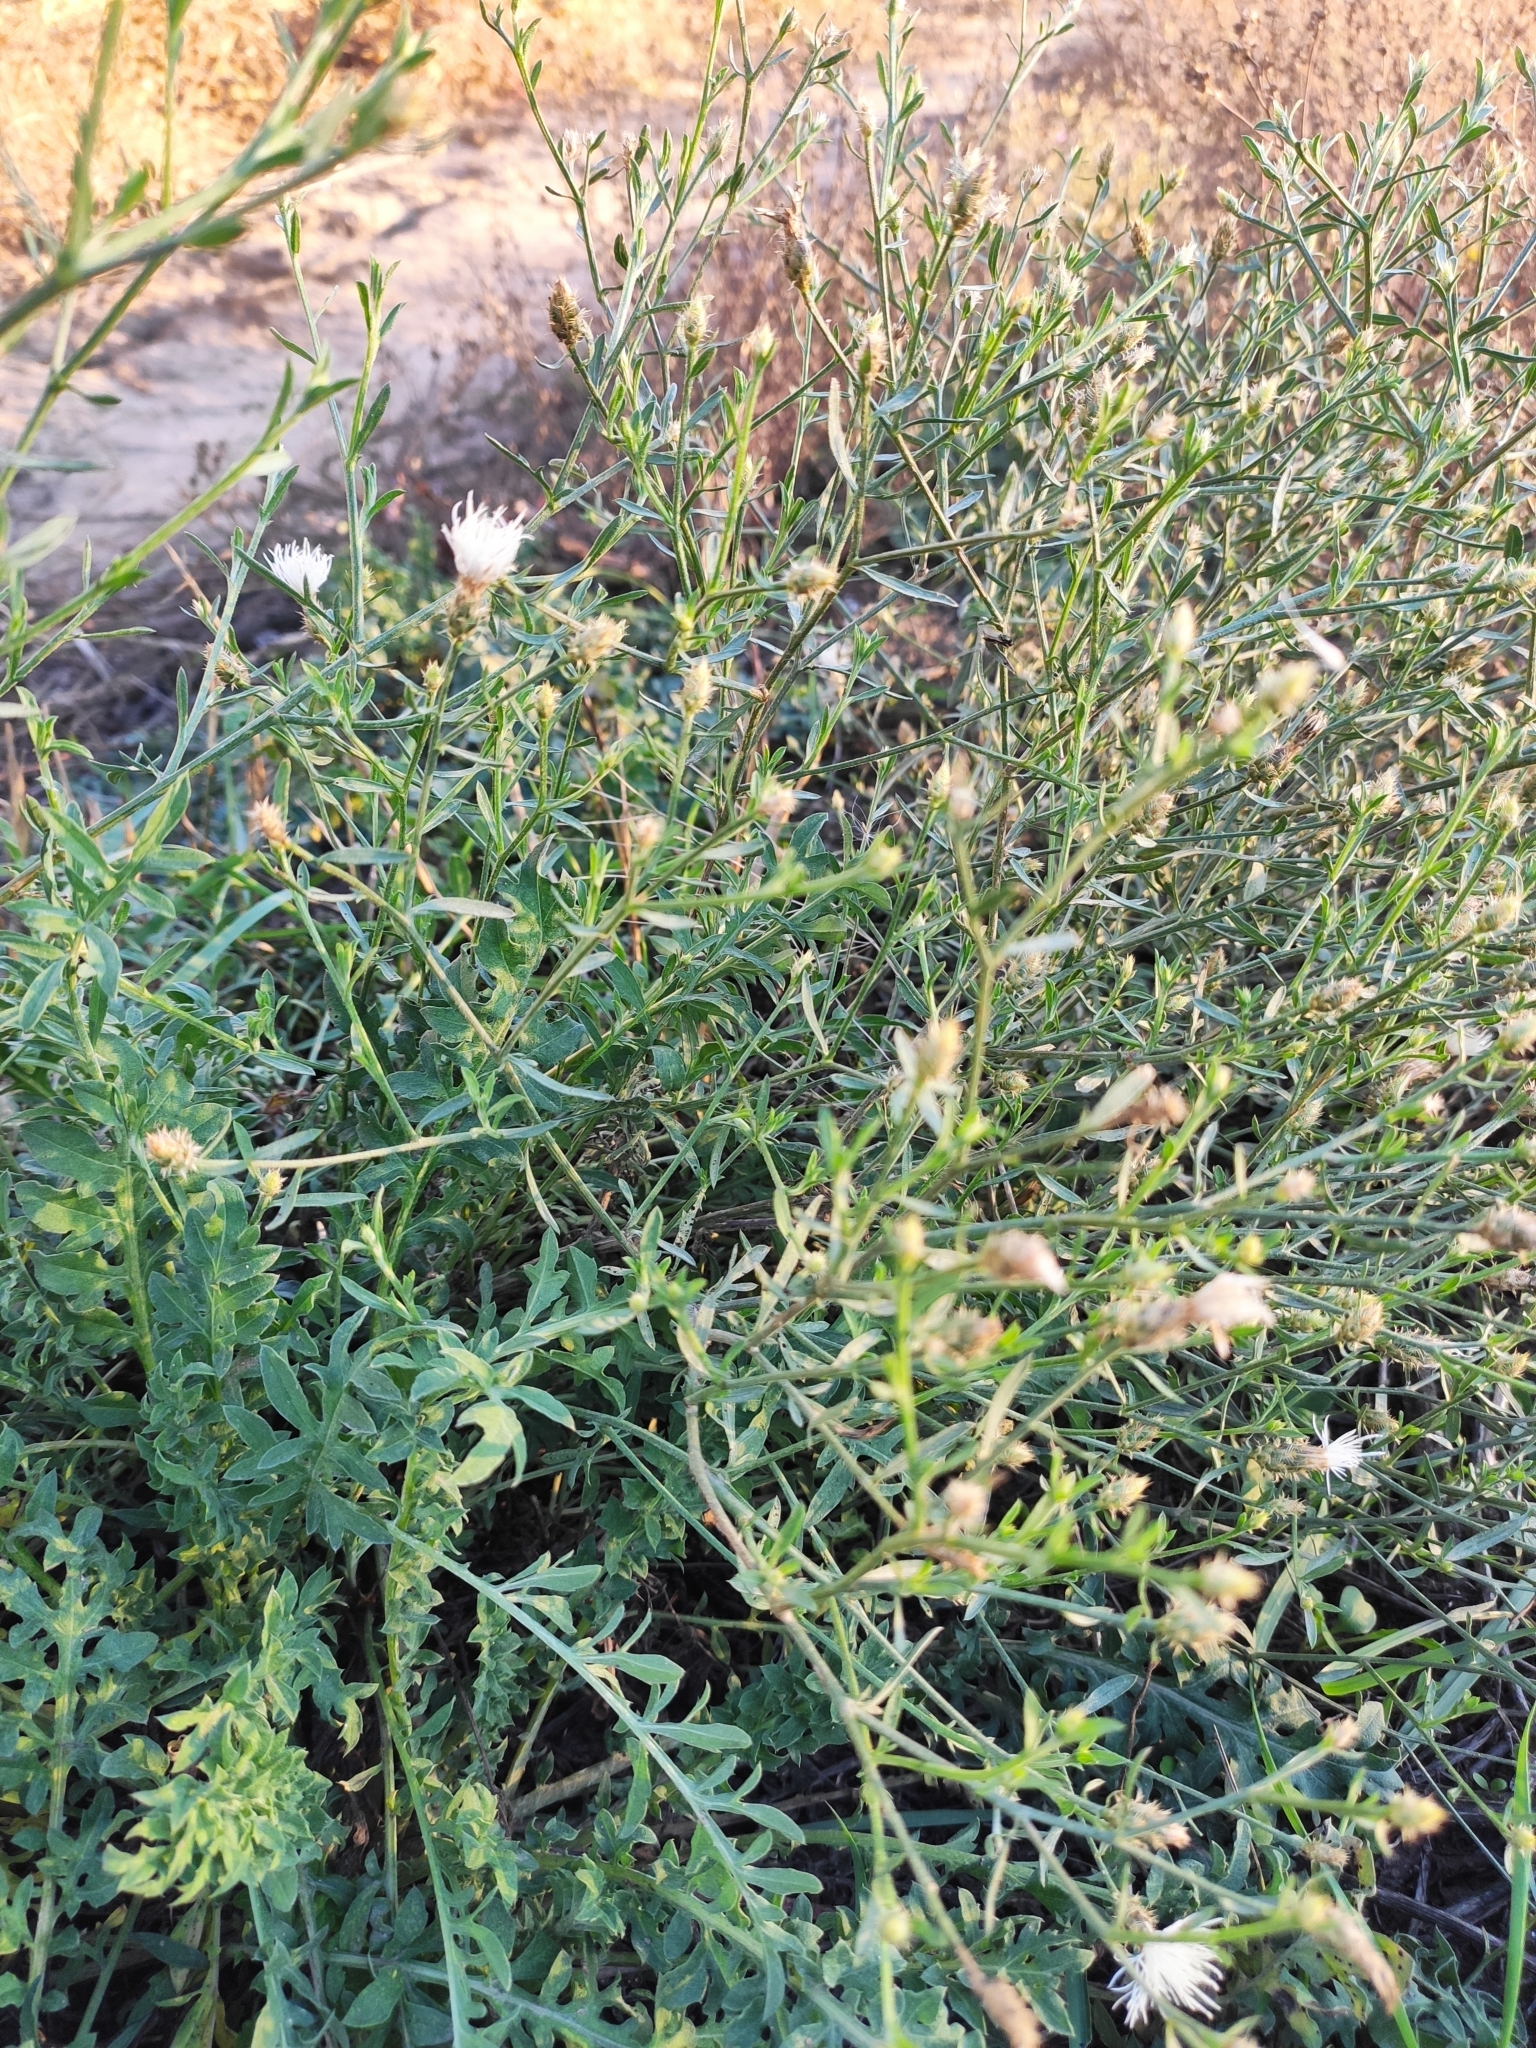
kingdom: Plantae
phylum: Tracheophyta
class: Magnoliopsida
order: Asterales
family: Asteraceae
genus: Centaurea
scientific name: Centaurea diffusa
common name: Diffuse knapweed
